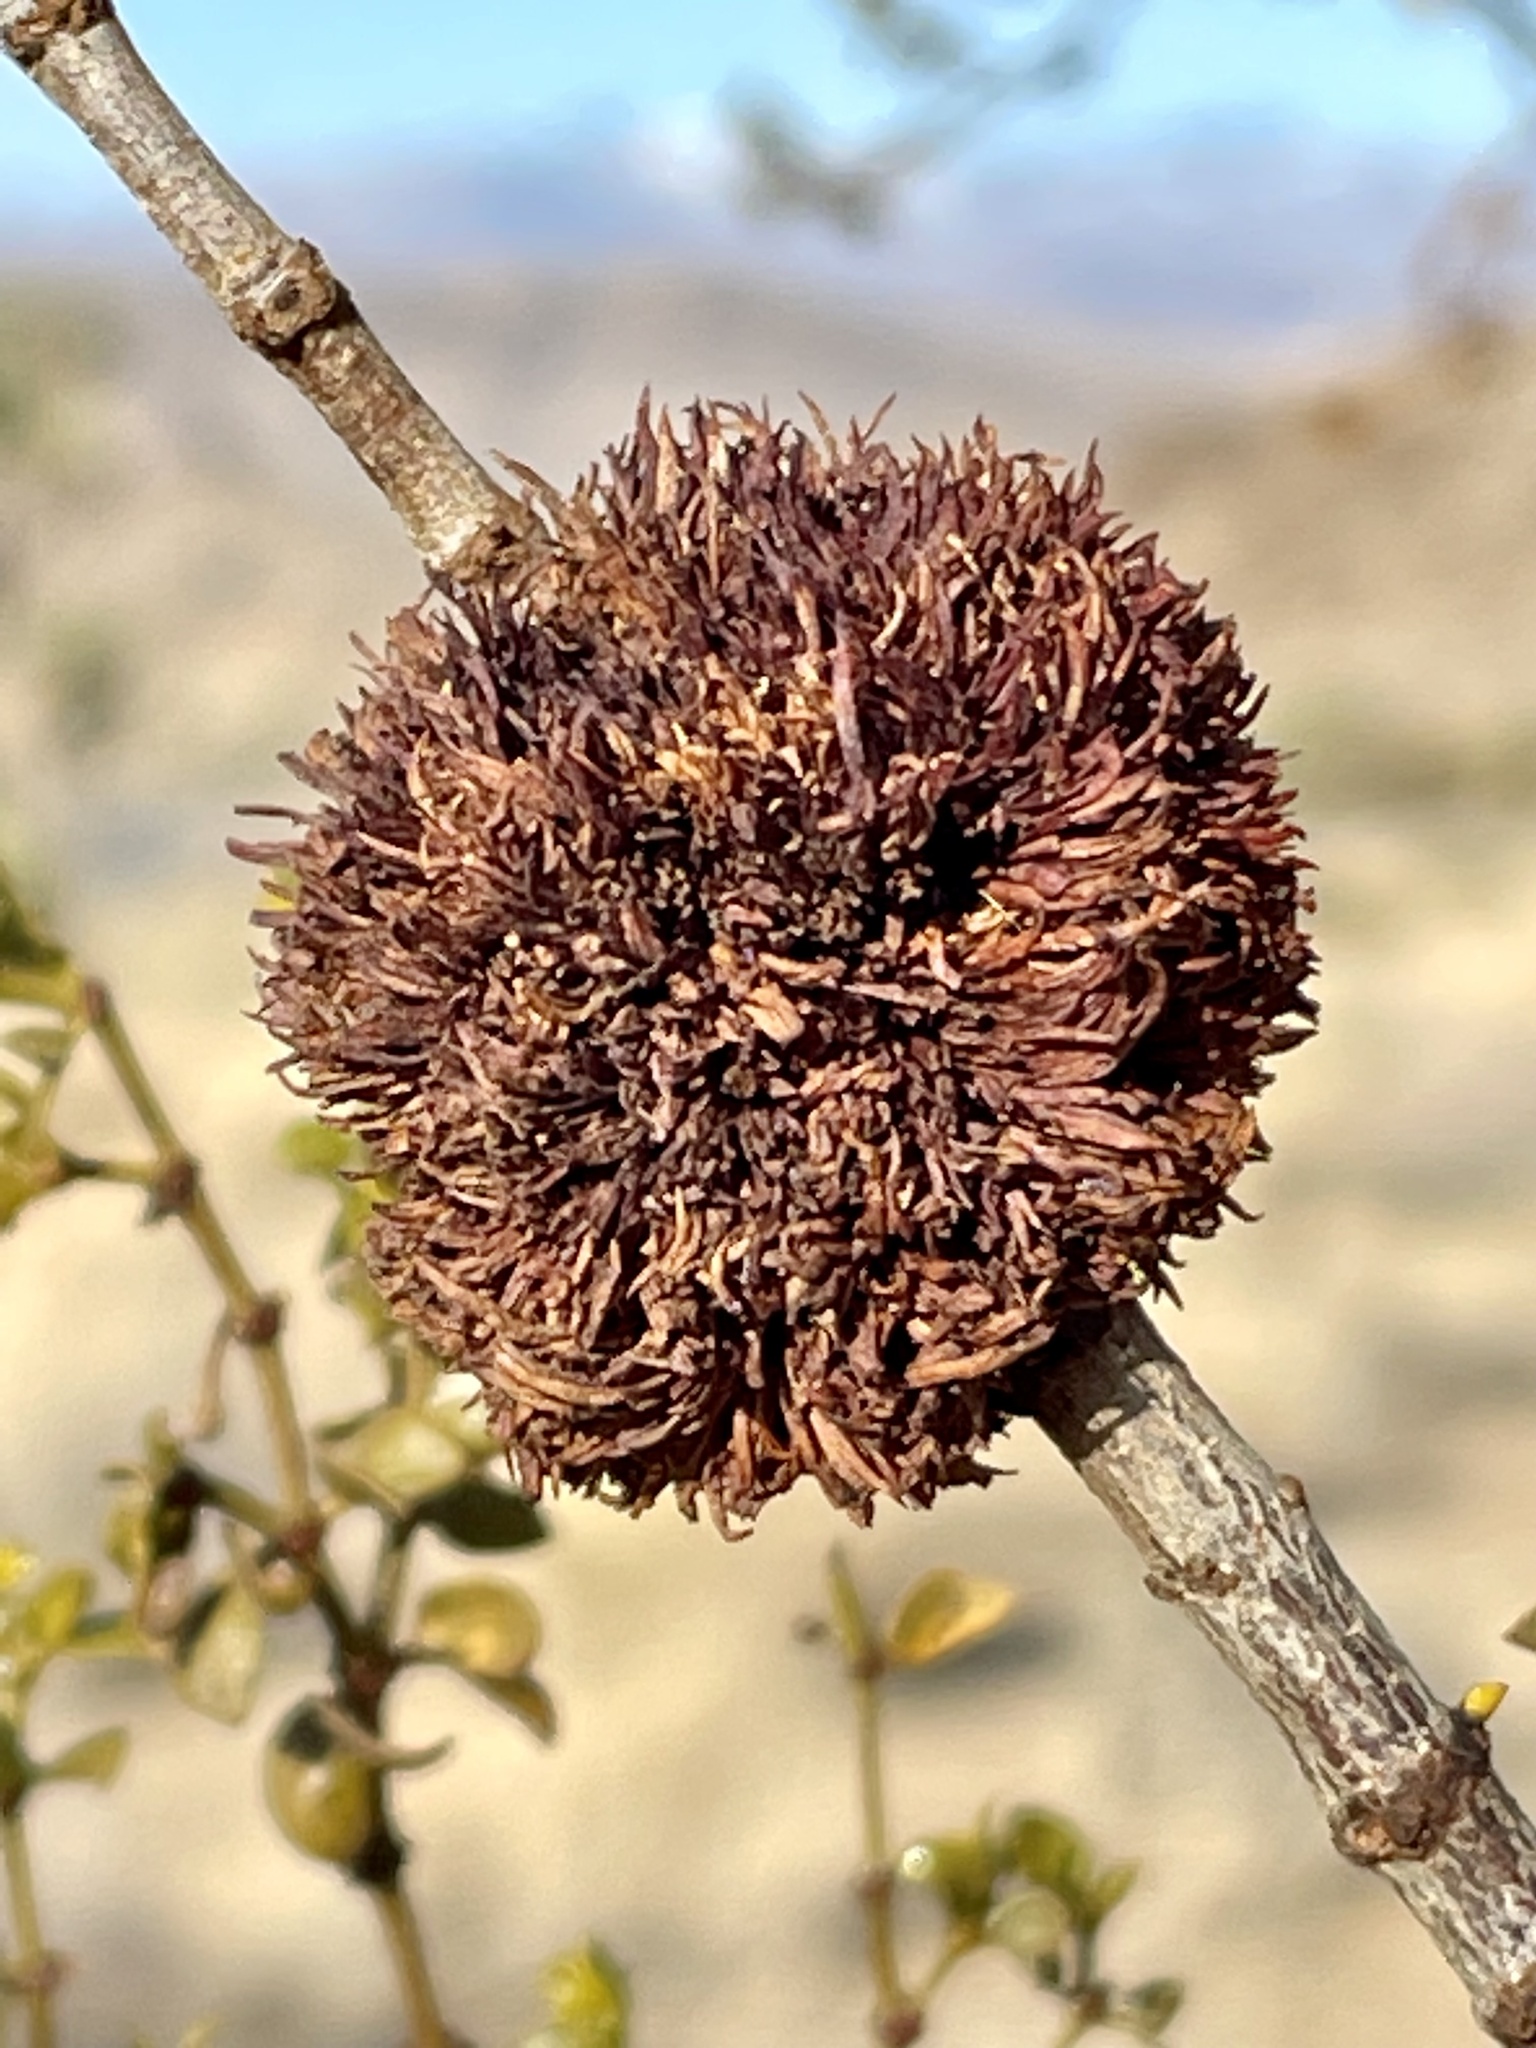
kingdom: Animalia
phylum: Arthropoda
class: Insecta
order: Diptera
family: Cecidomyiidae
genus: Asphondylia
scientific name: Asphondylia auripila
